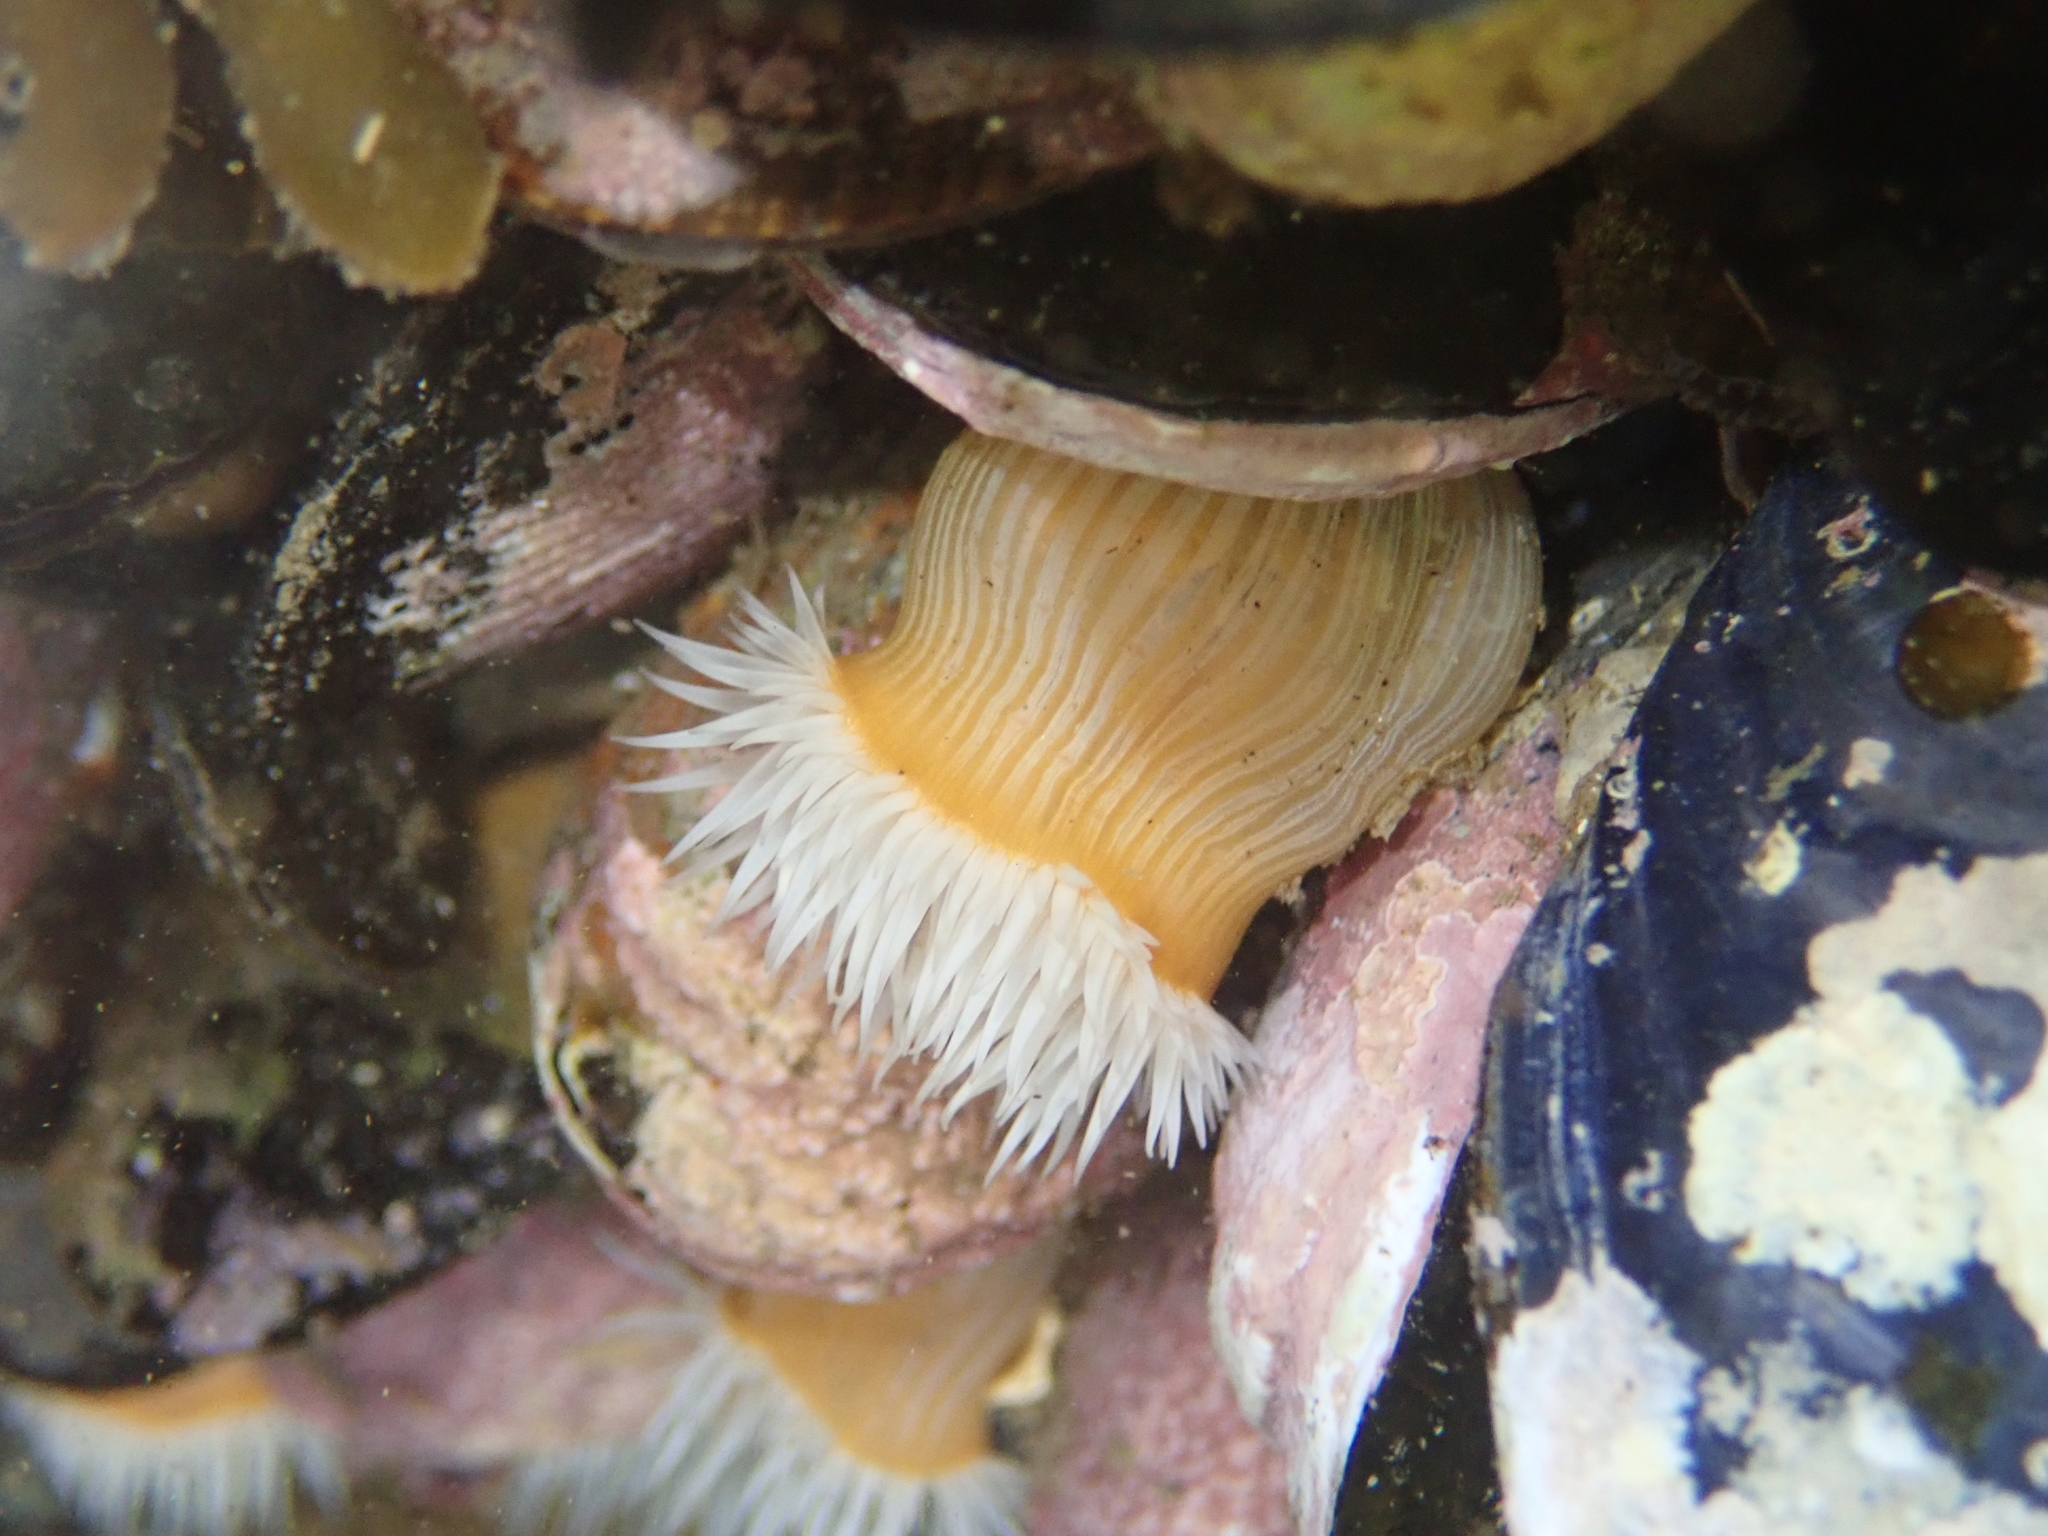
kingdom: Animalia
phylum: Cnidaria
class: Anthozoa
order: Actiniaria
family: Sagartiidae
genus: Anthothoe
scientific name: Anthothoe albocincta
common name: Orange striped anemone
